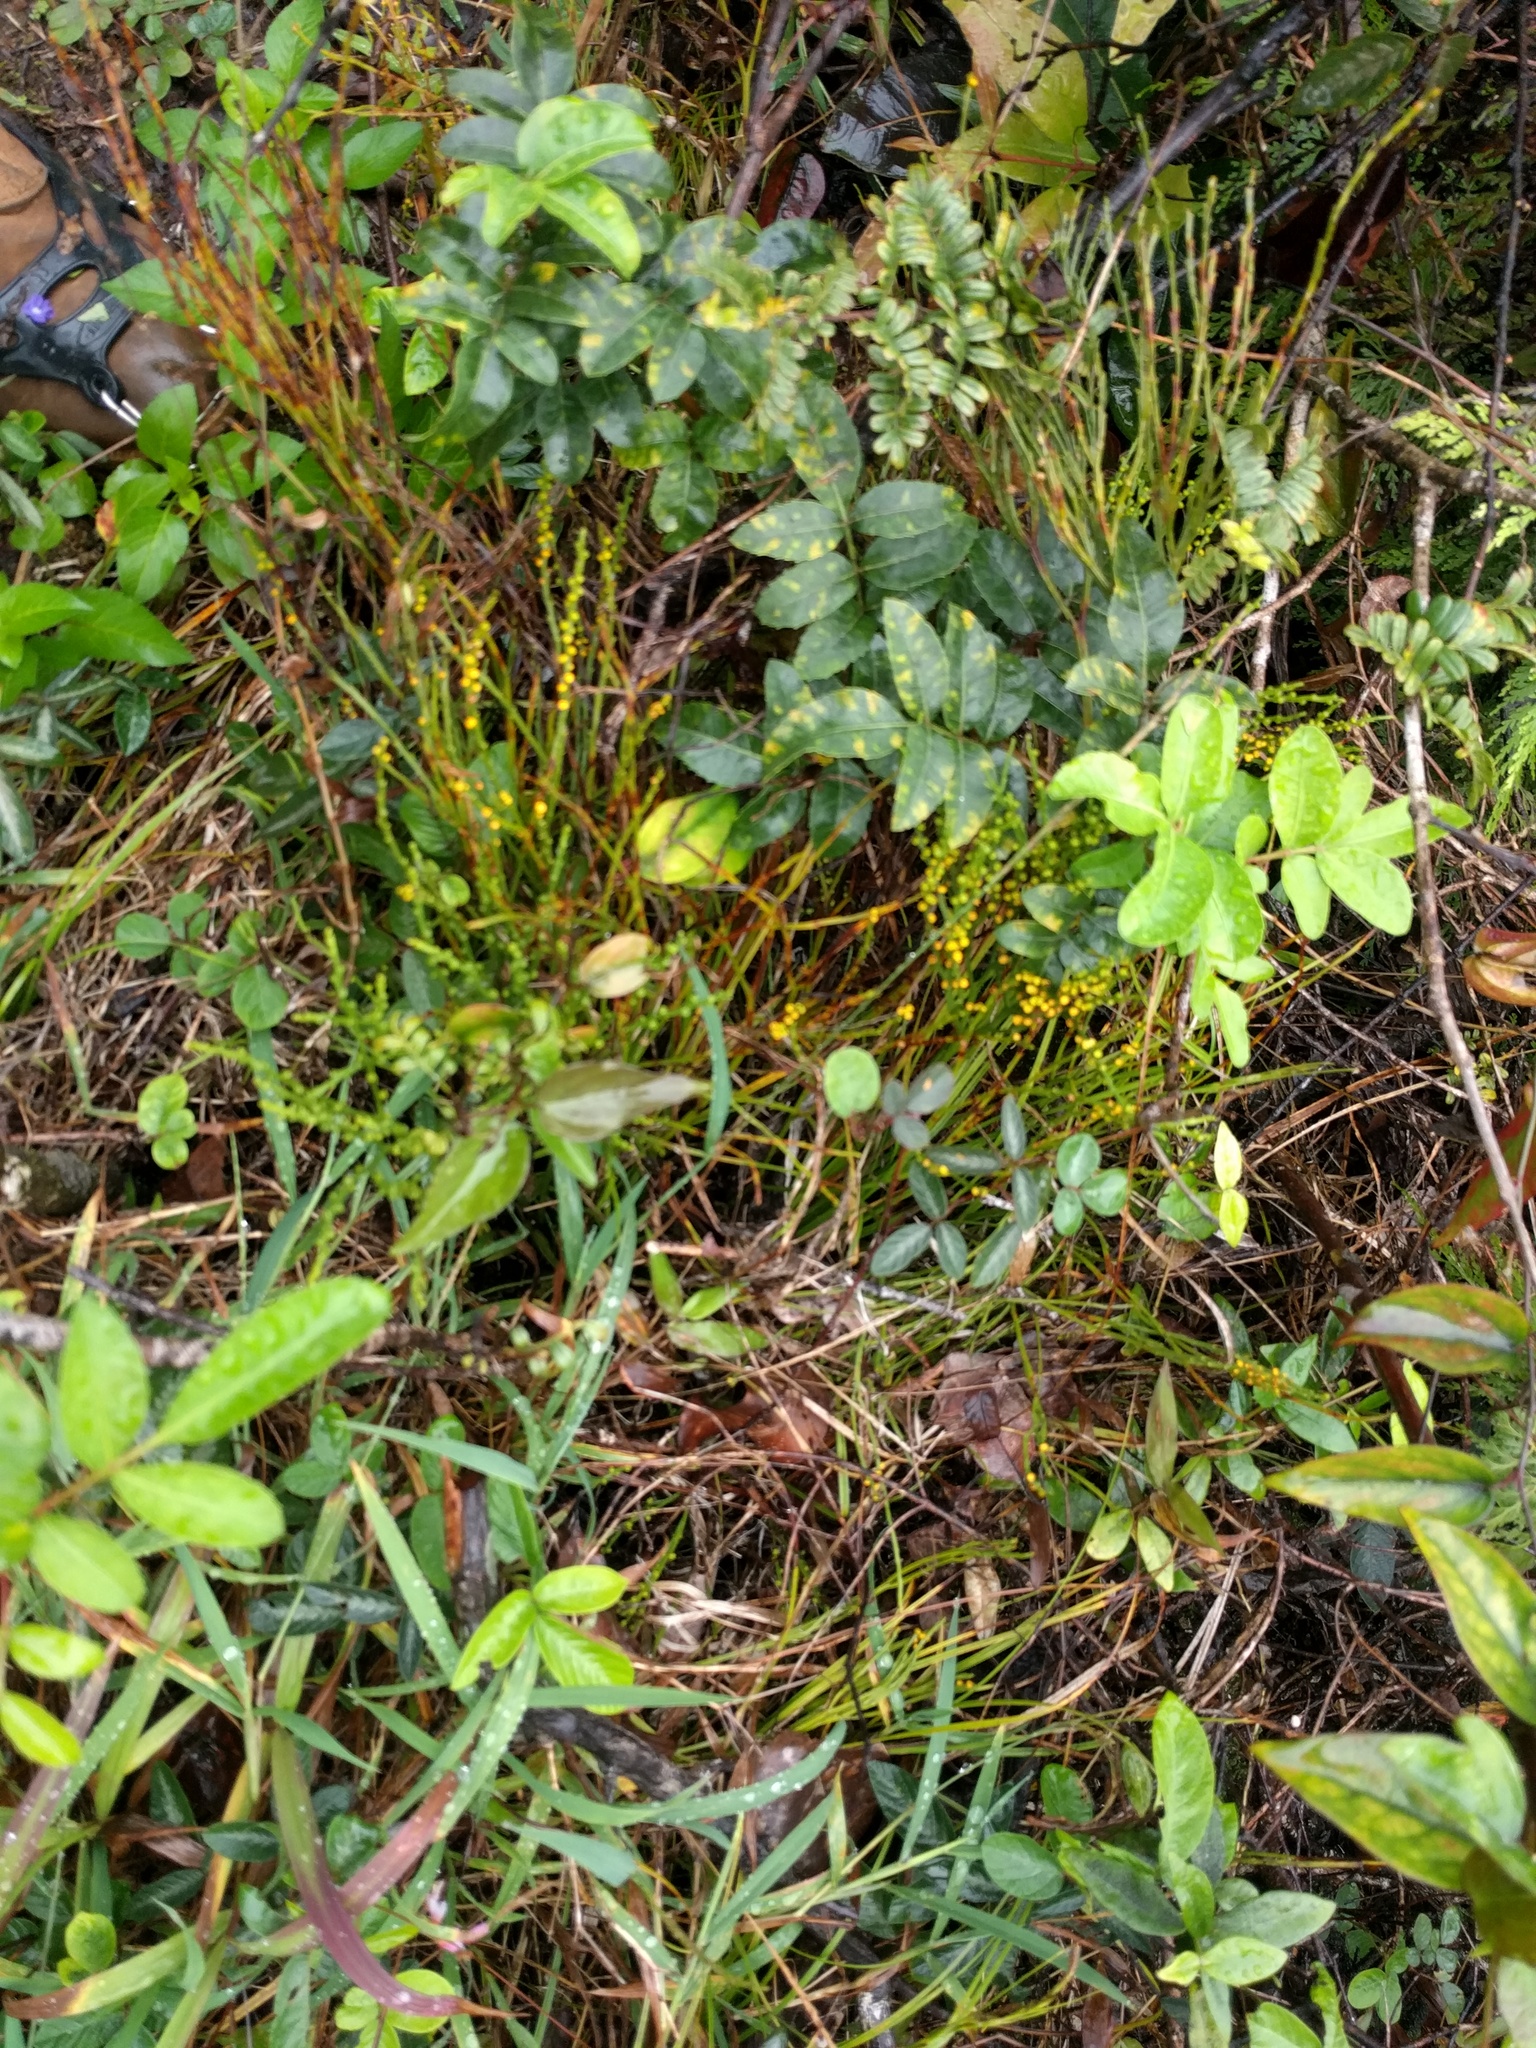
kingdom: Plantae
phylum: Tracheophyta
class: Polypodiopsida
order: Psilotales
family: Psilotaceae
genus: Psilotum
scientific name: Psilotum nudum
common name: Skeleton fork fern
